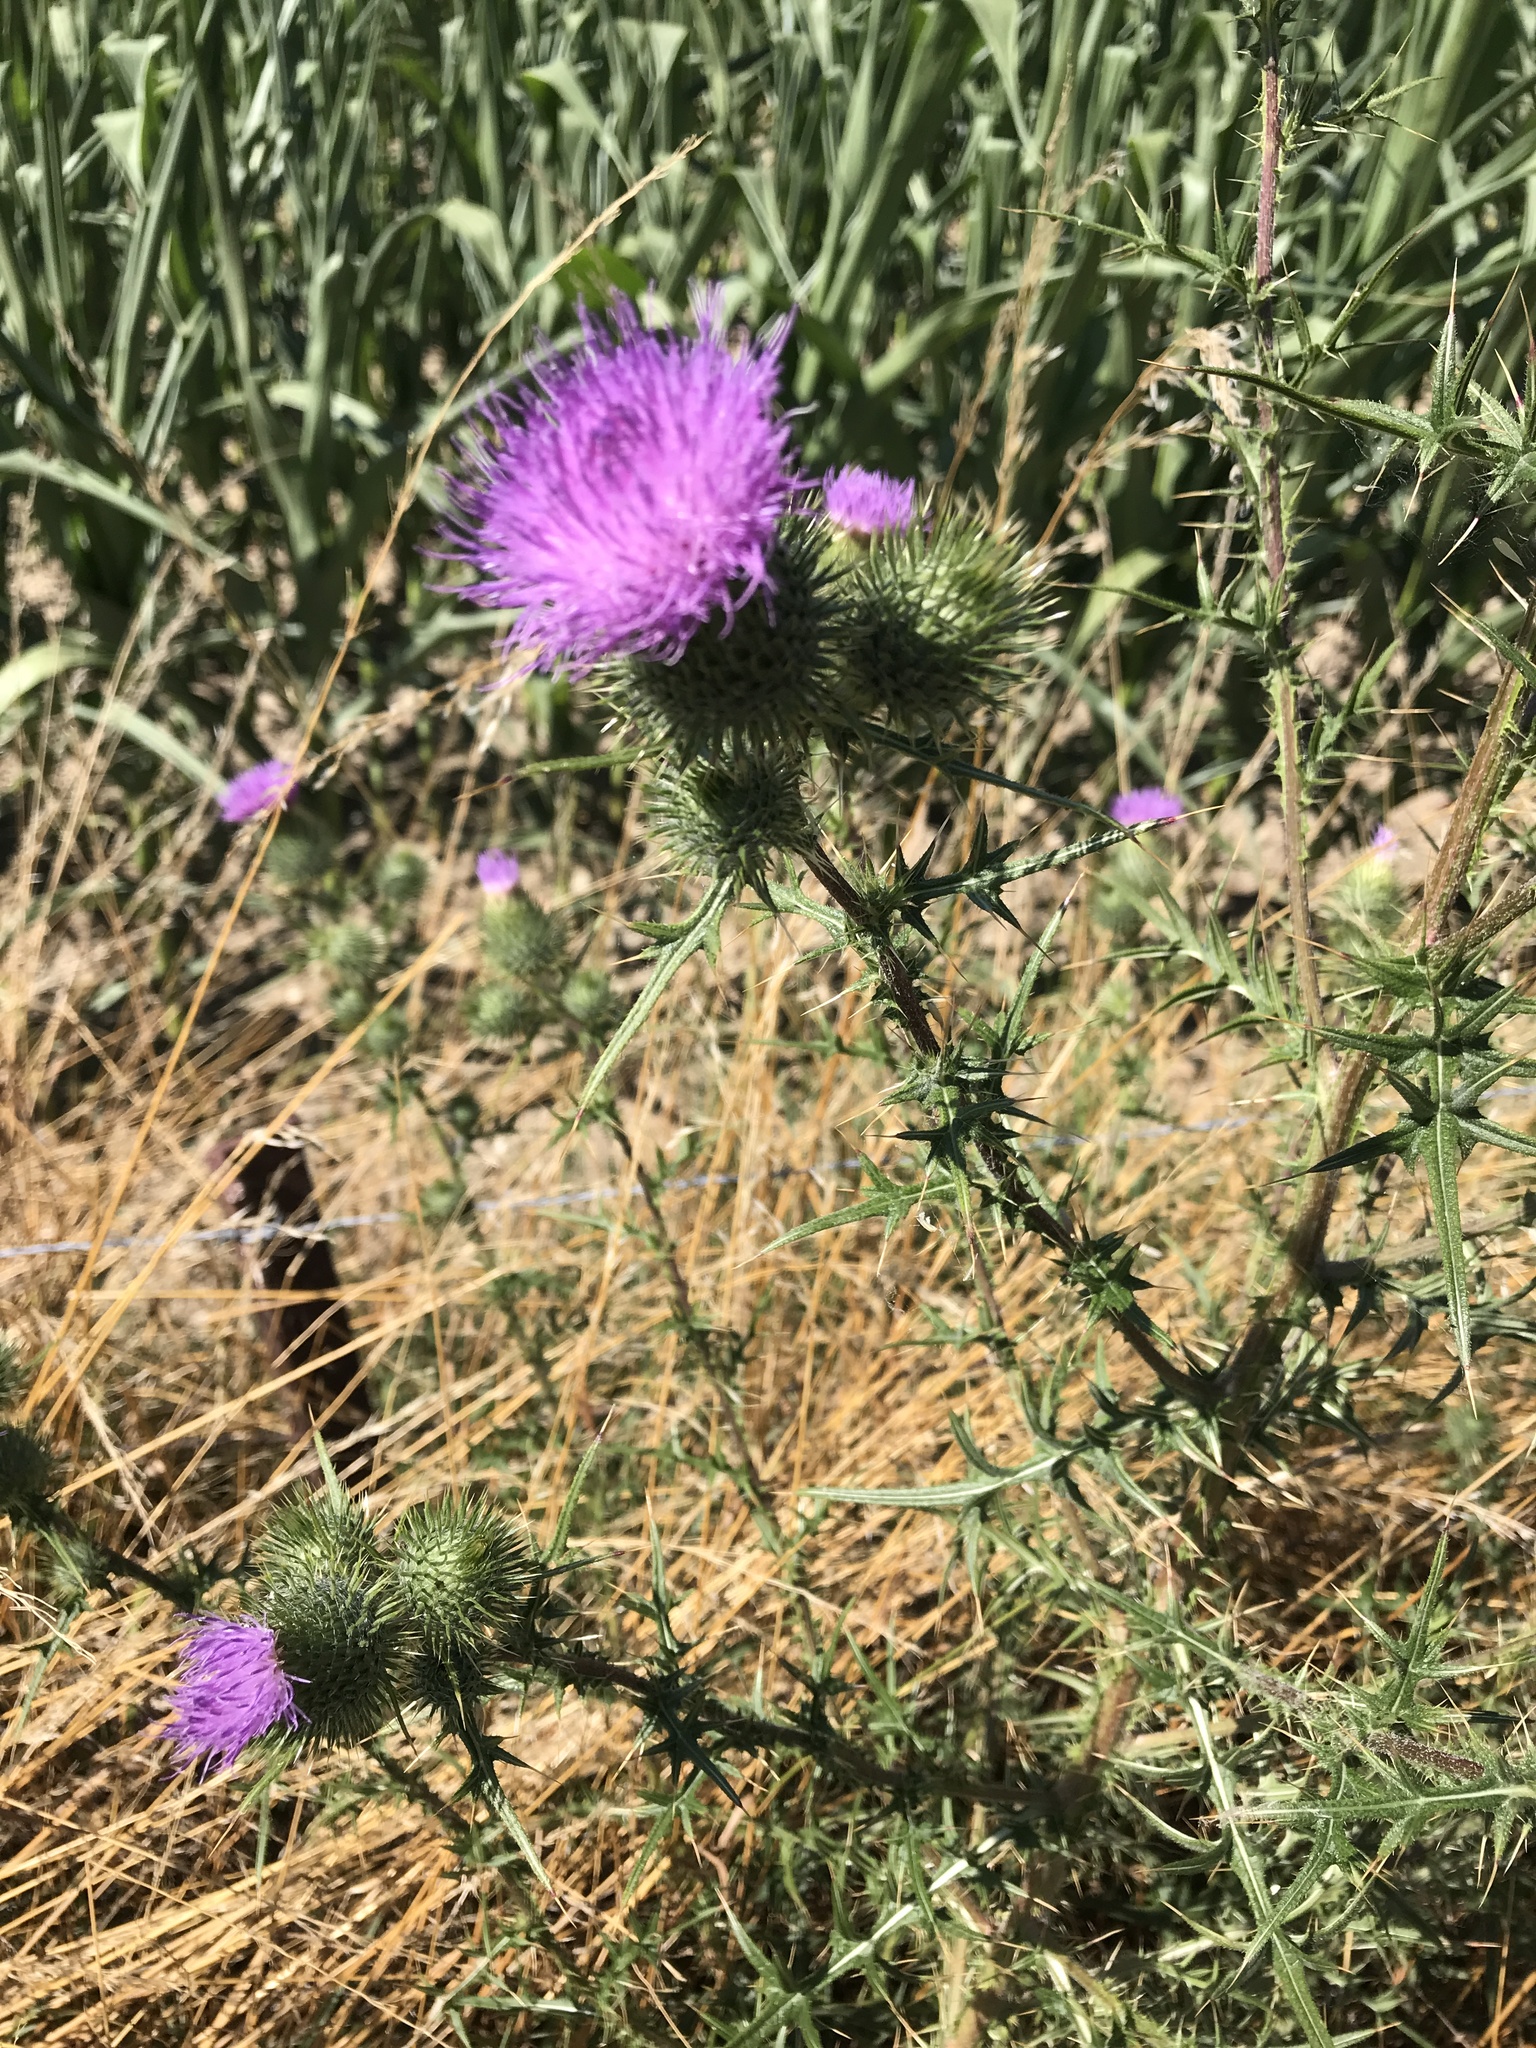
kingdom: Plantae
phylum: Tracheophyta
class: Magnoliopsida
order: Asterales
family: Asteraceae
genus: Cirsium
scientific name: Cirsium vulgare
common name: Bull thistle
